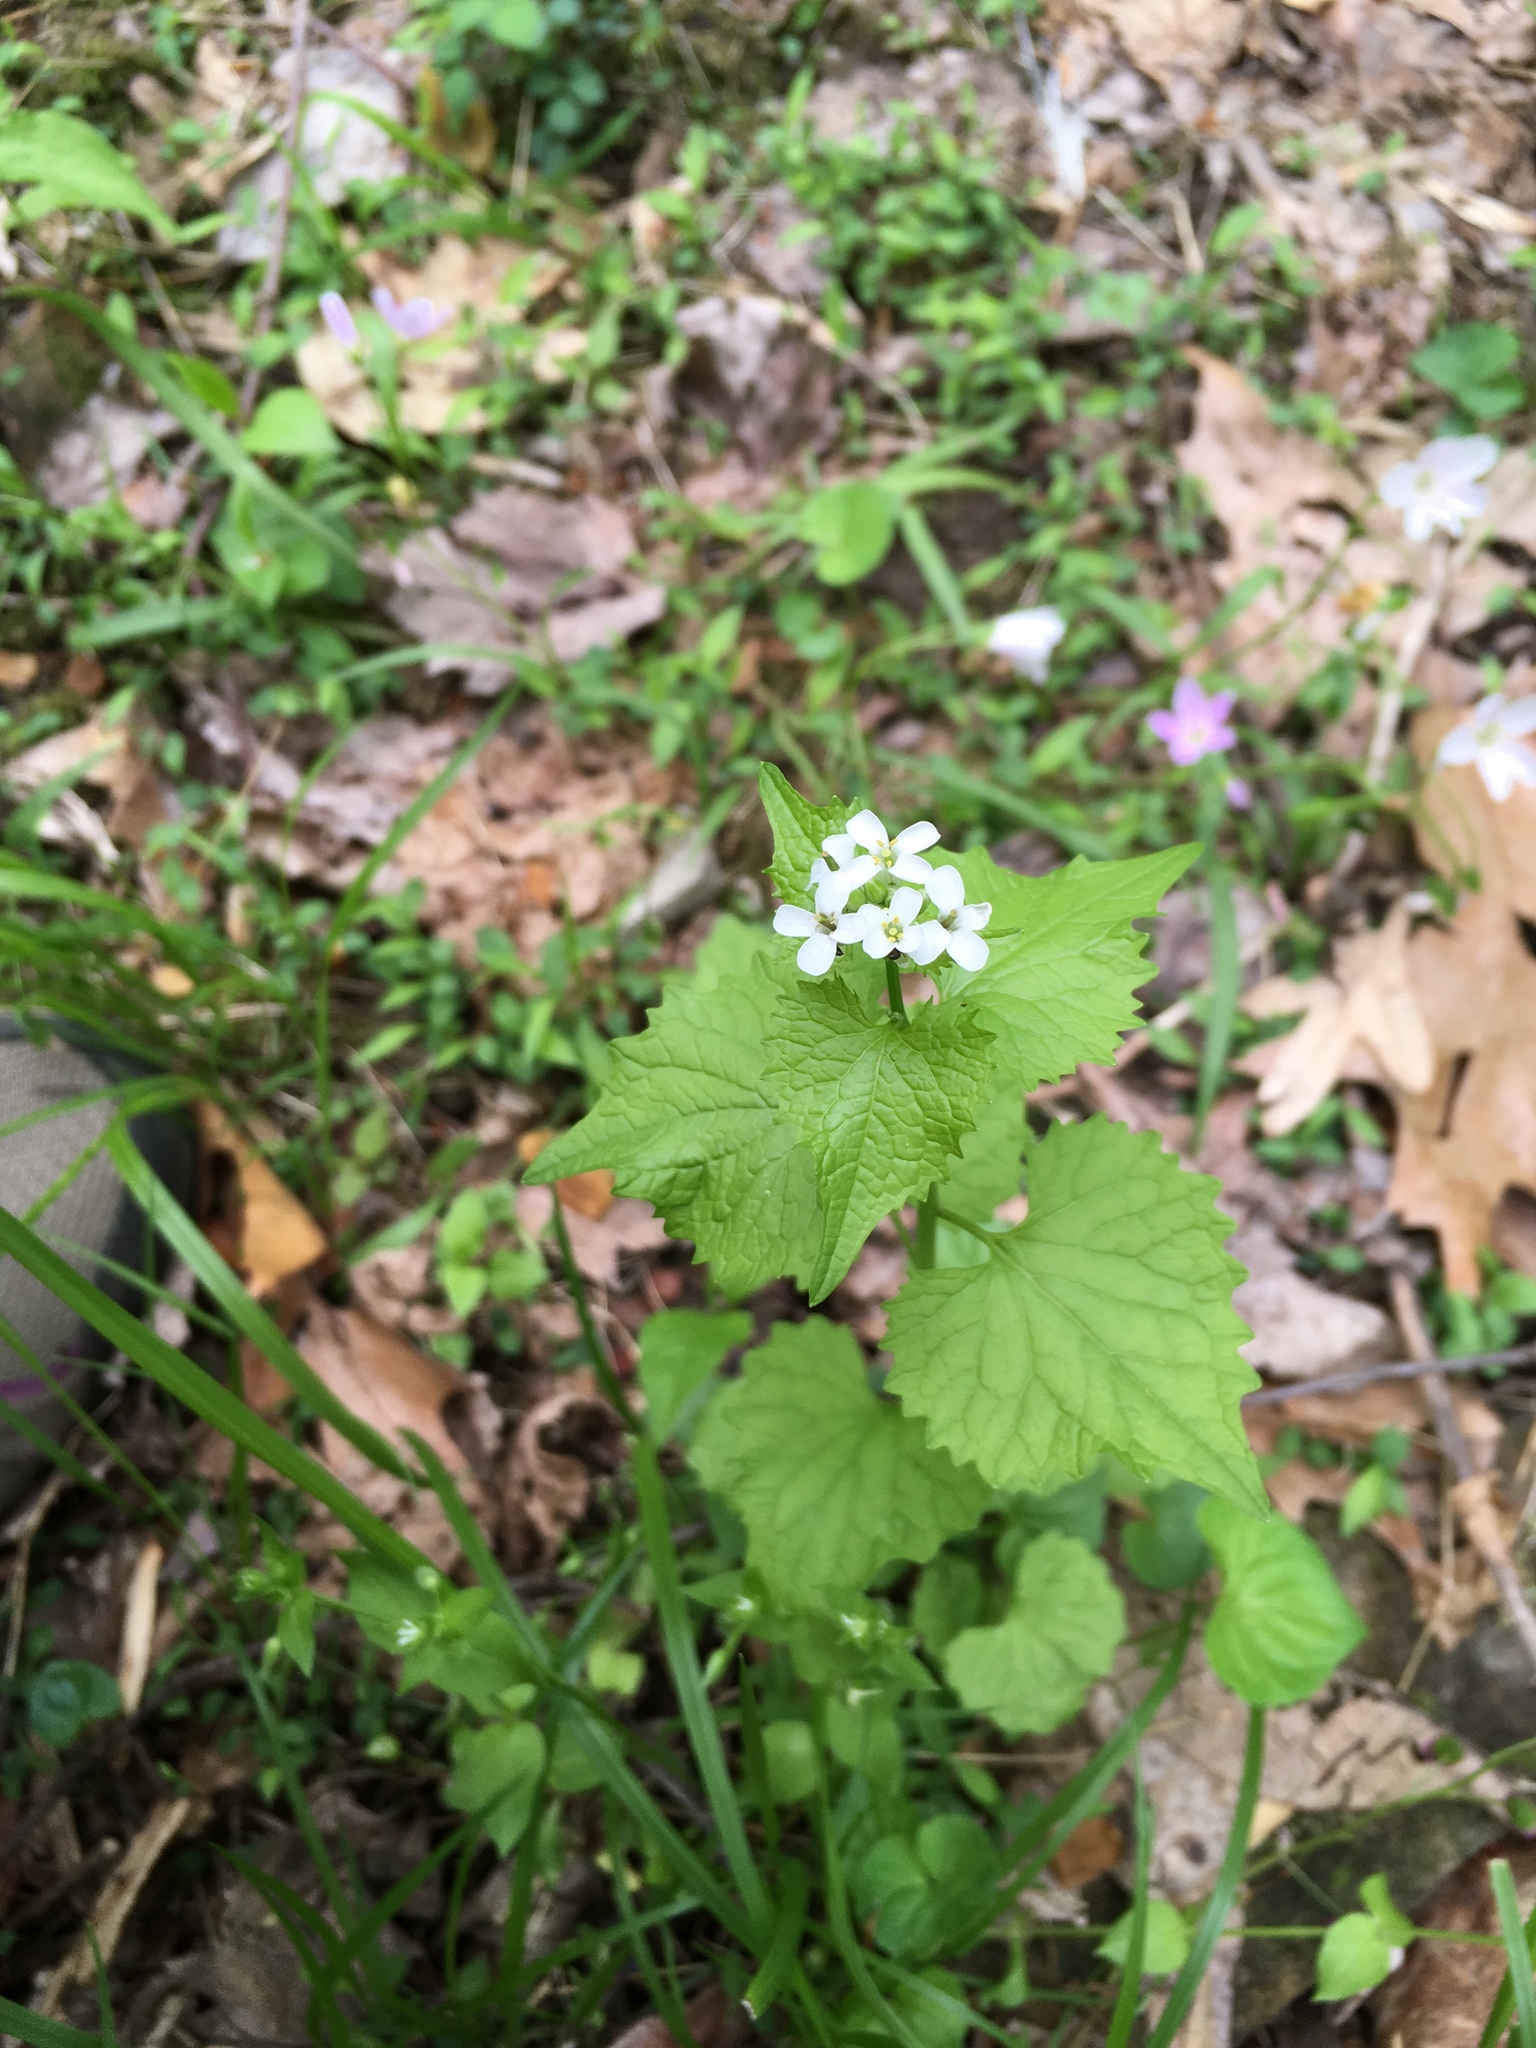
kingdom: Plantae
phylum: Tracheophyta
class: Magnoliopsida
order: Brassicales
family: Brassicaceae
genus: Alliaria
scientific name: Alliaria petiolata
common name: Garlic mustard
